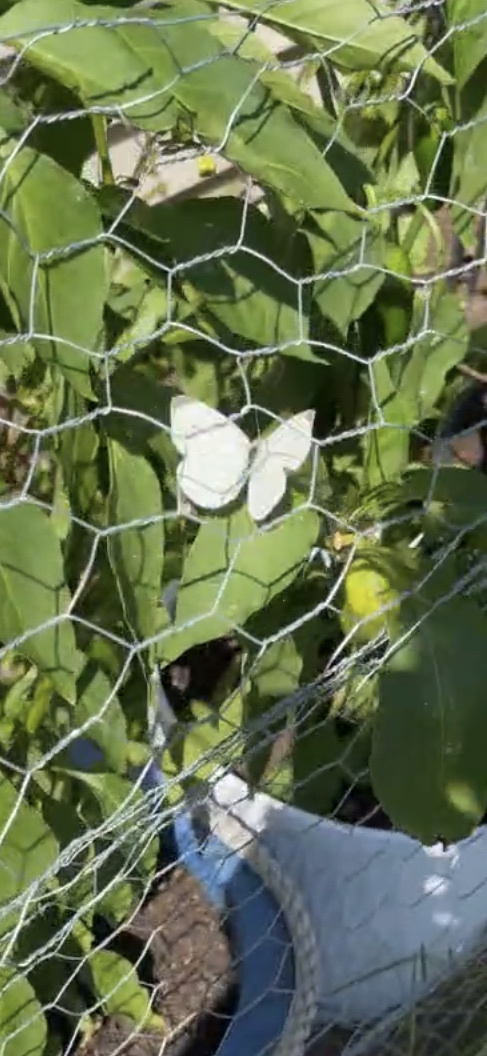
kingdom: Animalia
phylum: Arthropoda
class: Insecta
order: Lepidoptera
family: Pieridae
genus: Pieris
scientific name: Pieris rapae
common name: Small white
